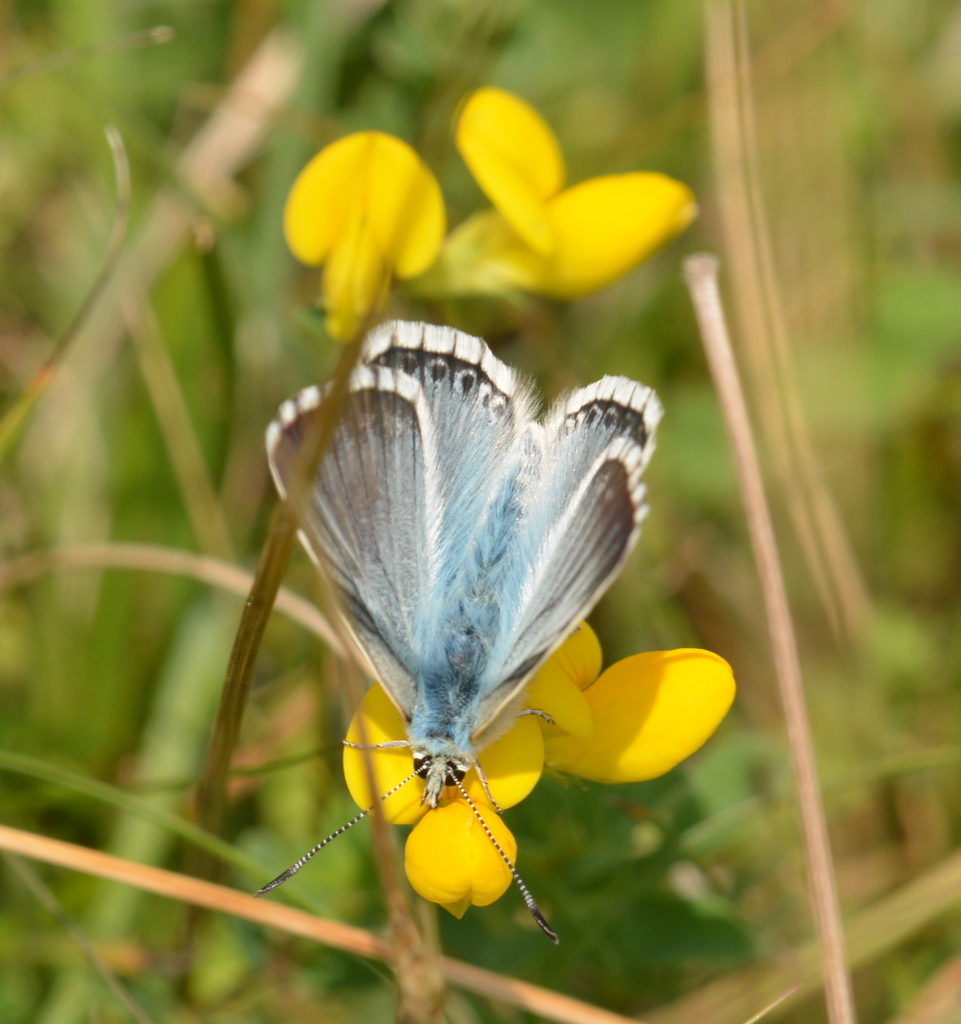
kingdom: Animalia
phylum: Arthropoda
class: Insecta
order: Lepidoptera
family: Lycaenidae
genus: Lysandra
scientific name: Lysandra coridon
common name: Chalkhill blue
